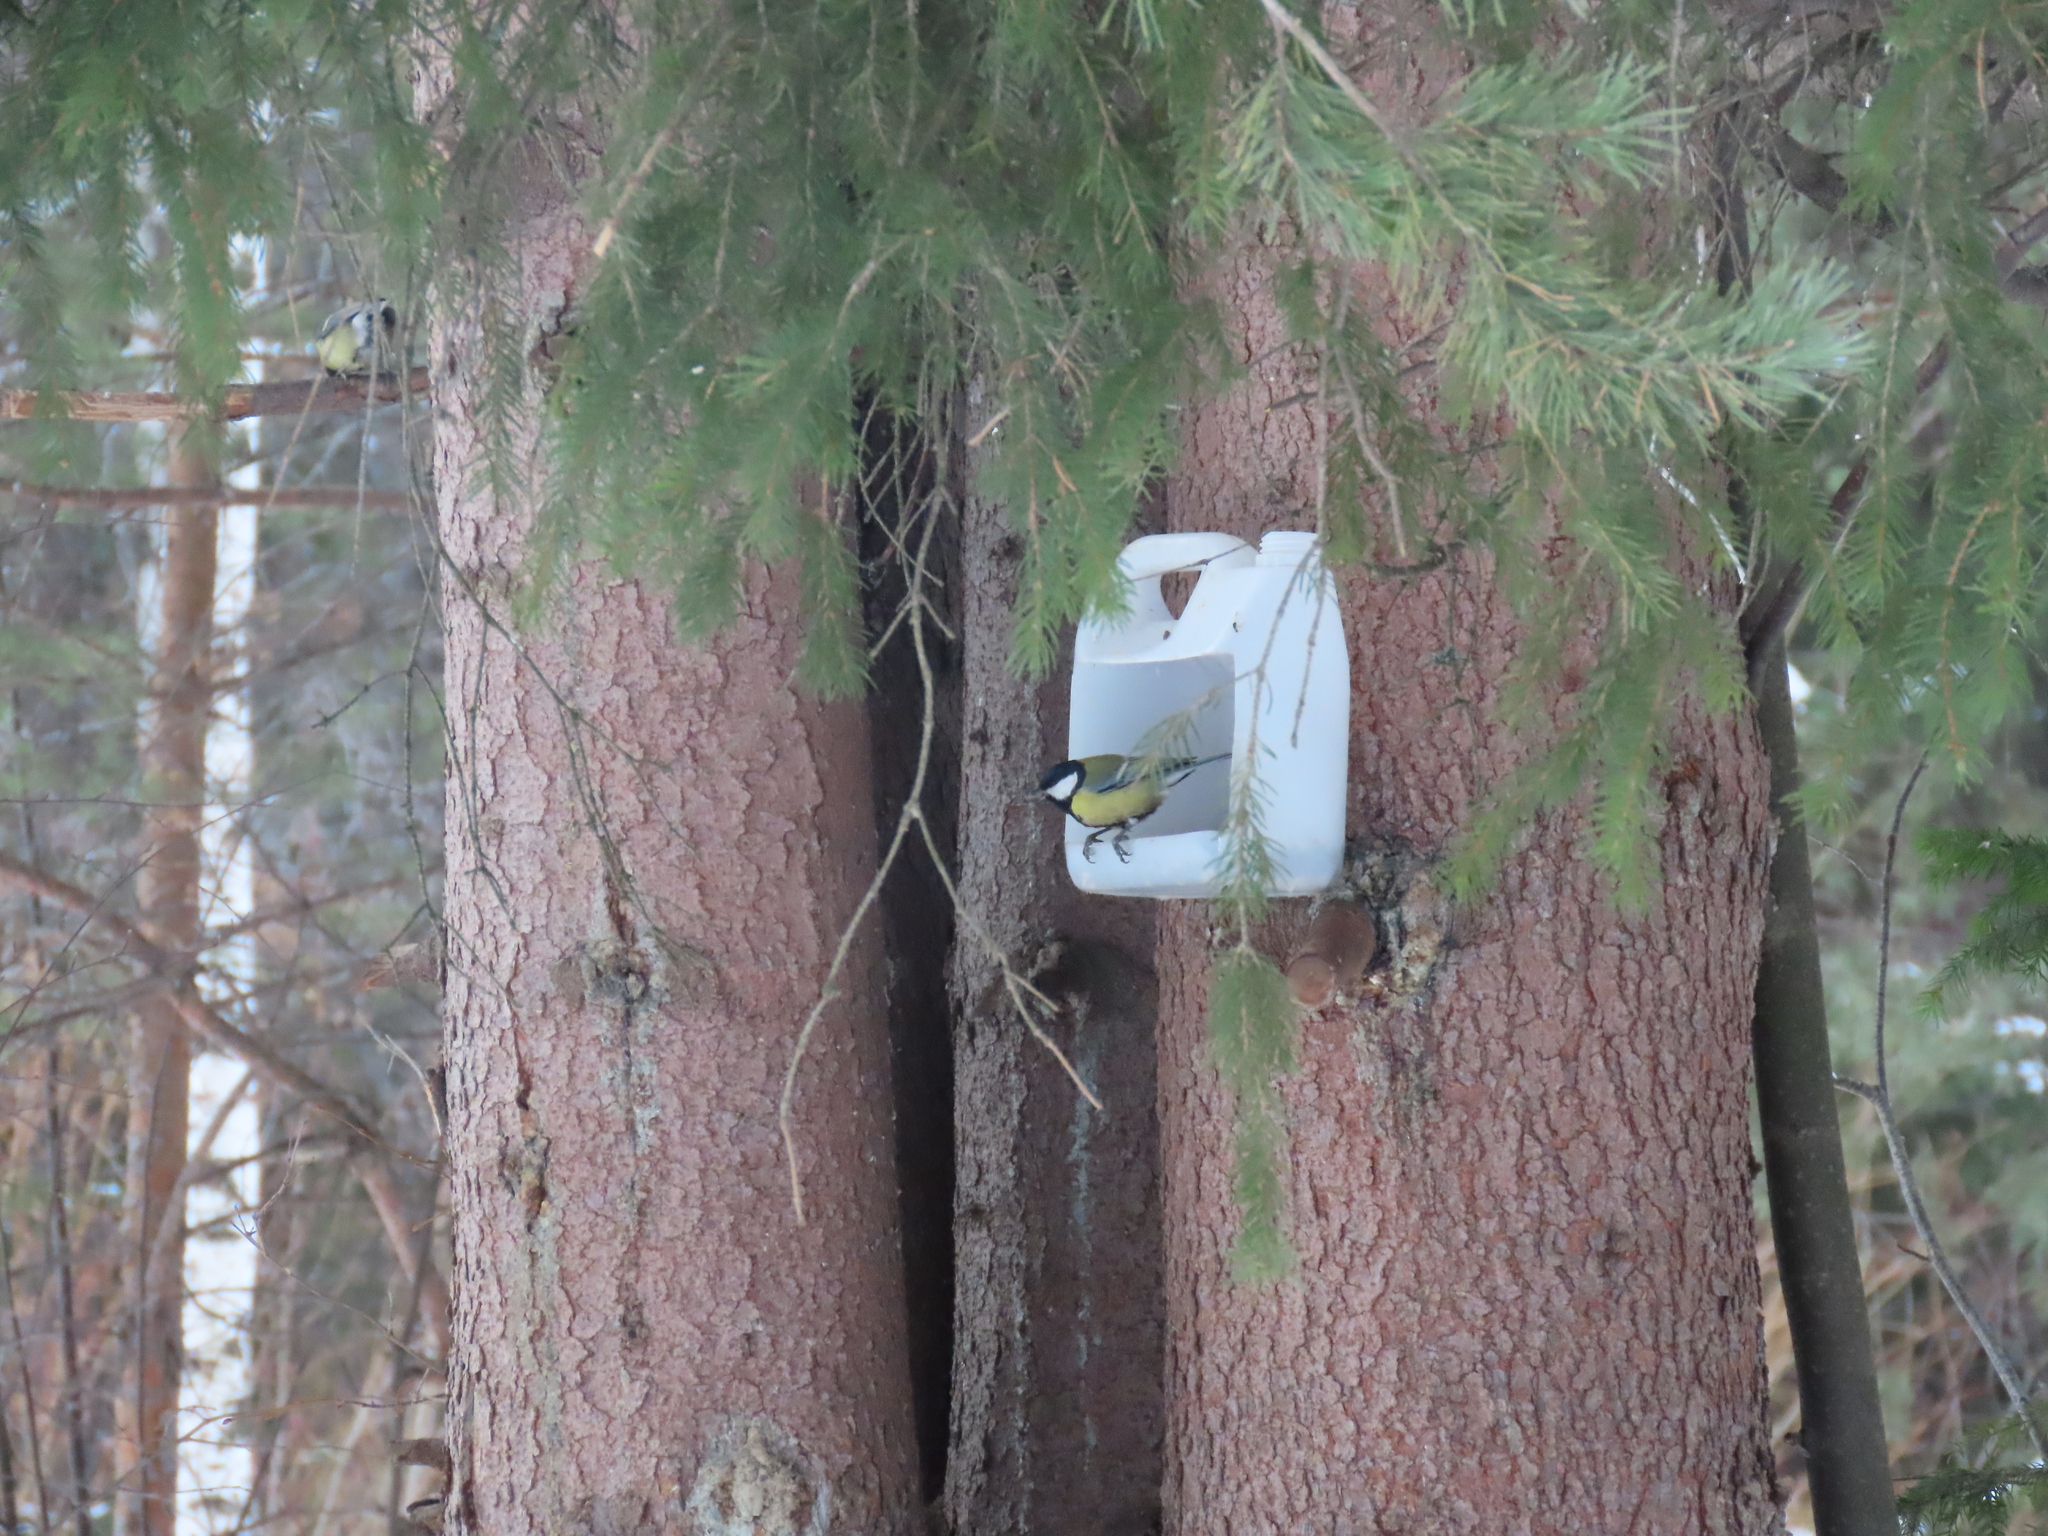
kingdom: Animalia
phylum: Chordata
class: Aves
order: Passeriformes
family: Paridae
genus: Parus
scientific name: Parus major
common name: Great tit
